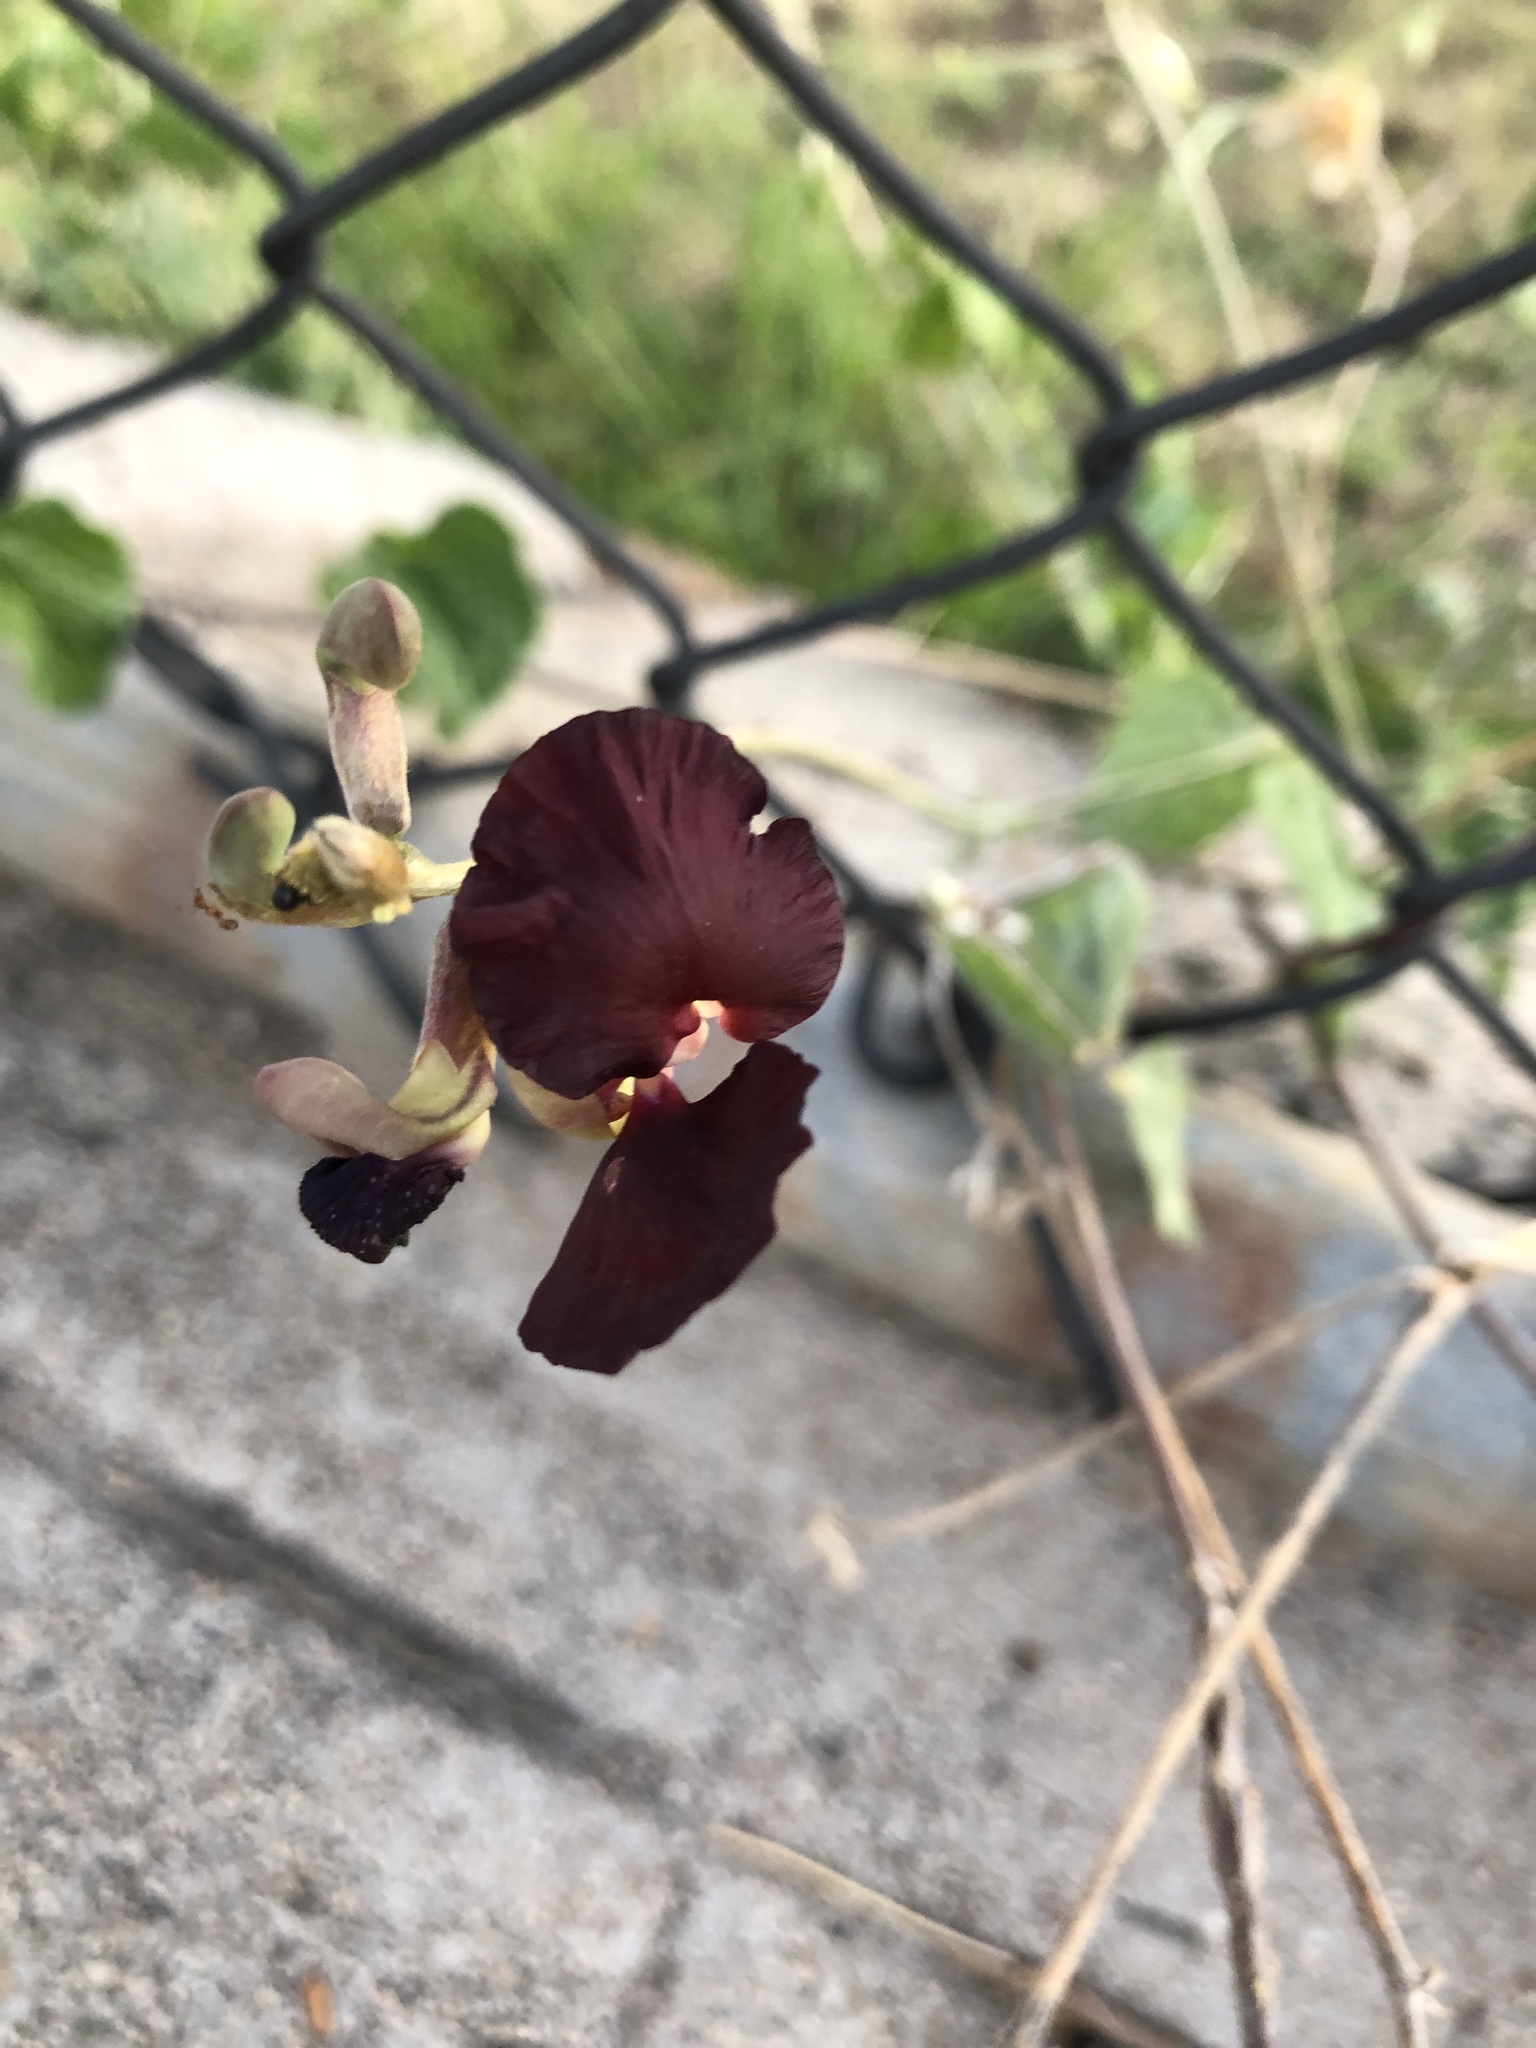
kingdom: Plantae
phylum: Tracheophyta
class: Magnoliopsida
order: Fabales
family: Fabaceae
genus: Macroptilium
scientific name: Macroptilium atropurpureum
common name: Purple bushbean
